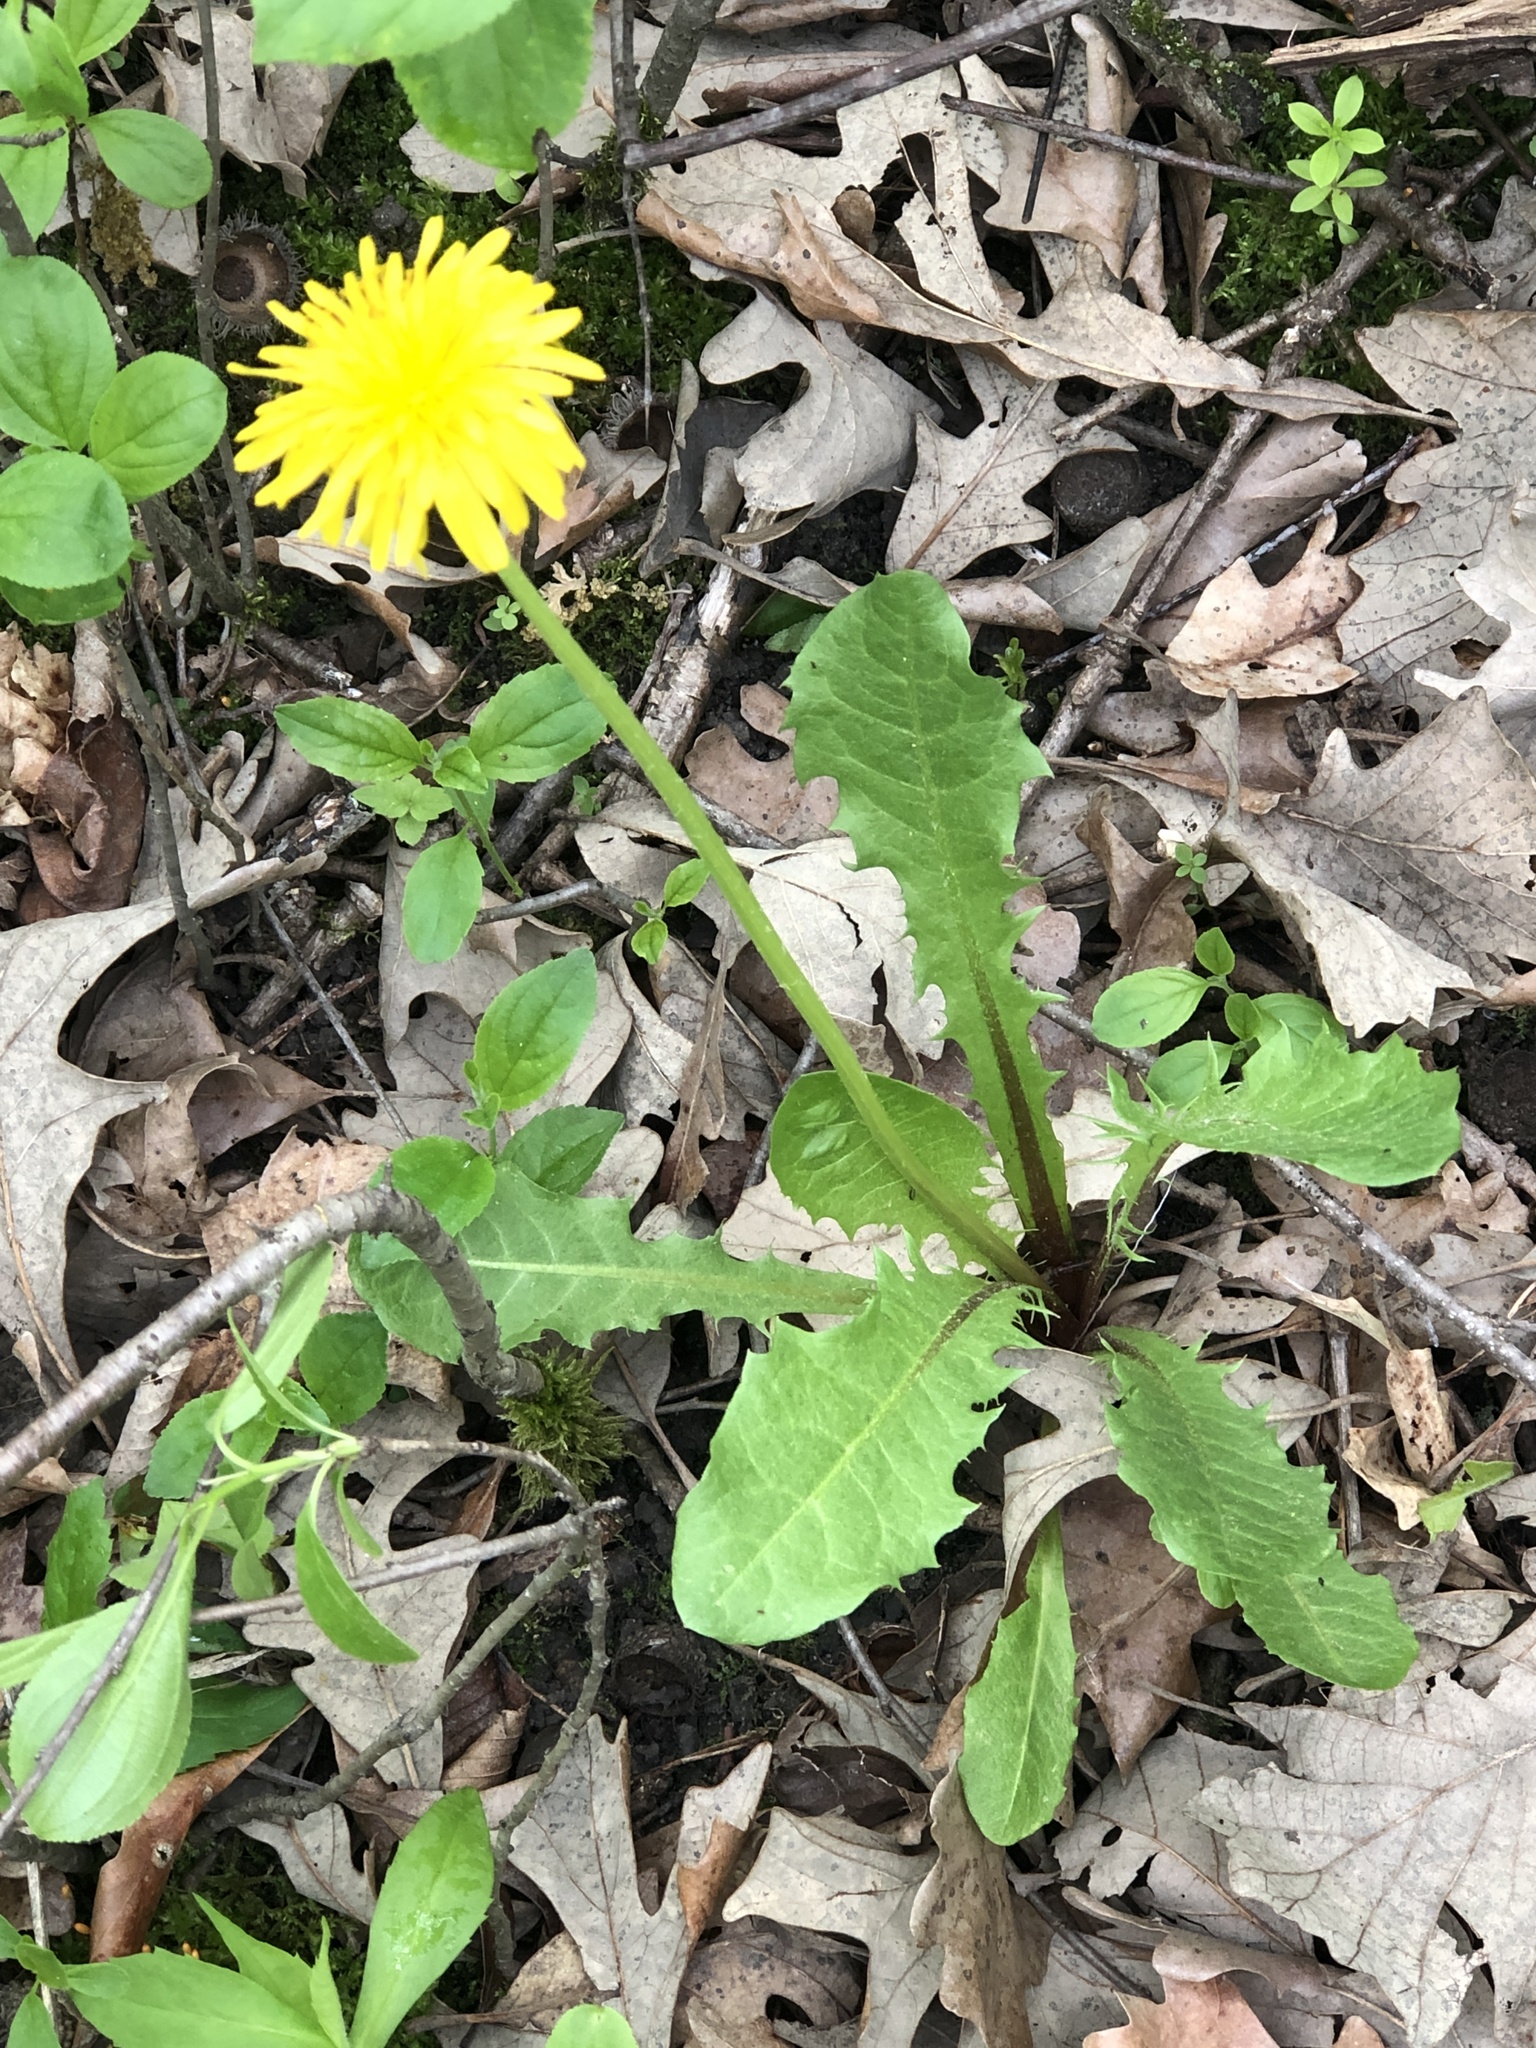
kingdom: Plantae
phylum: Tracheophyta
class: Magnoliopsida
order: Asterales
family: Asteraceae
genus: Taraxacum
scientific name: Taraxacum officinale
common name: Common dandelion
